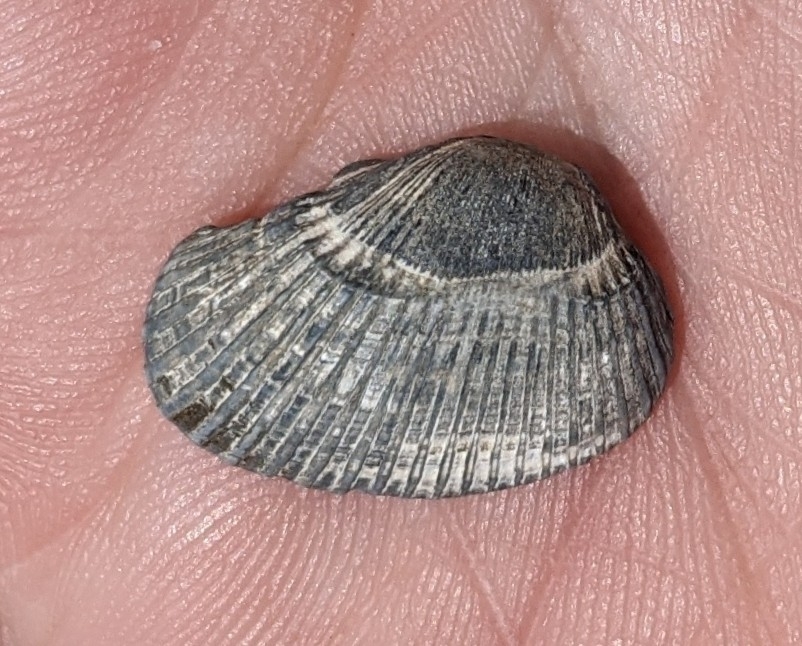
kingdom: Animalia
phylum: Mollusca
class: Bivalvia
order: Arcida
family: Arcidae
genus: Anadara
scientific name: Anadara transversa
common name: Transverse ark
